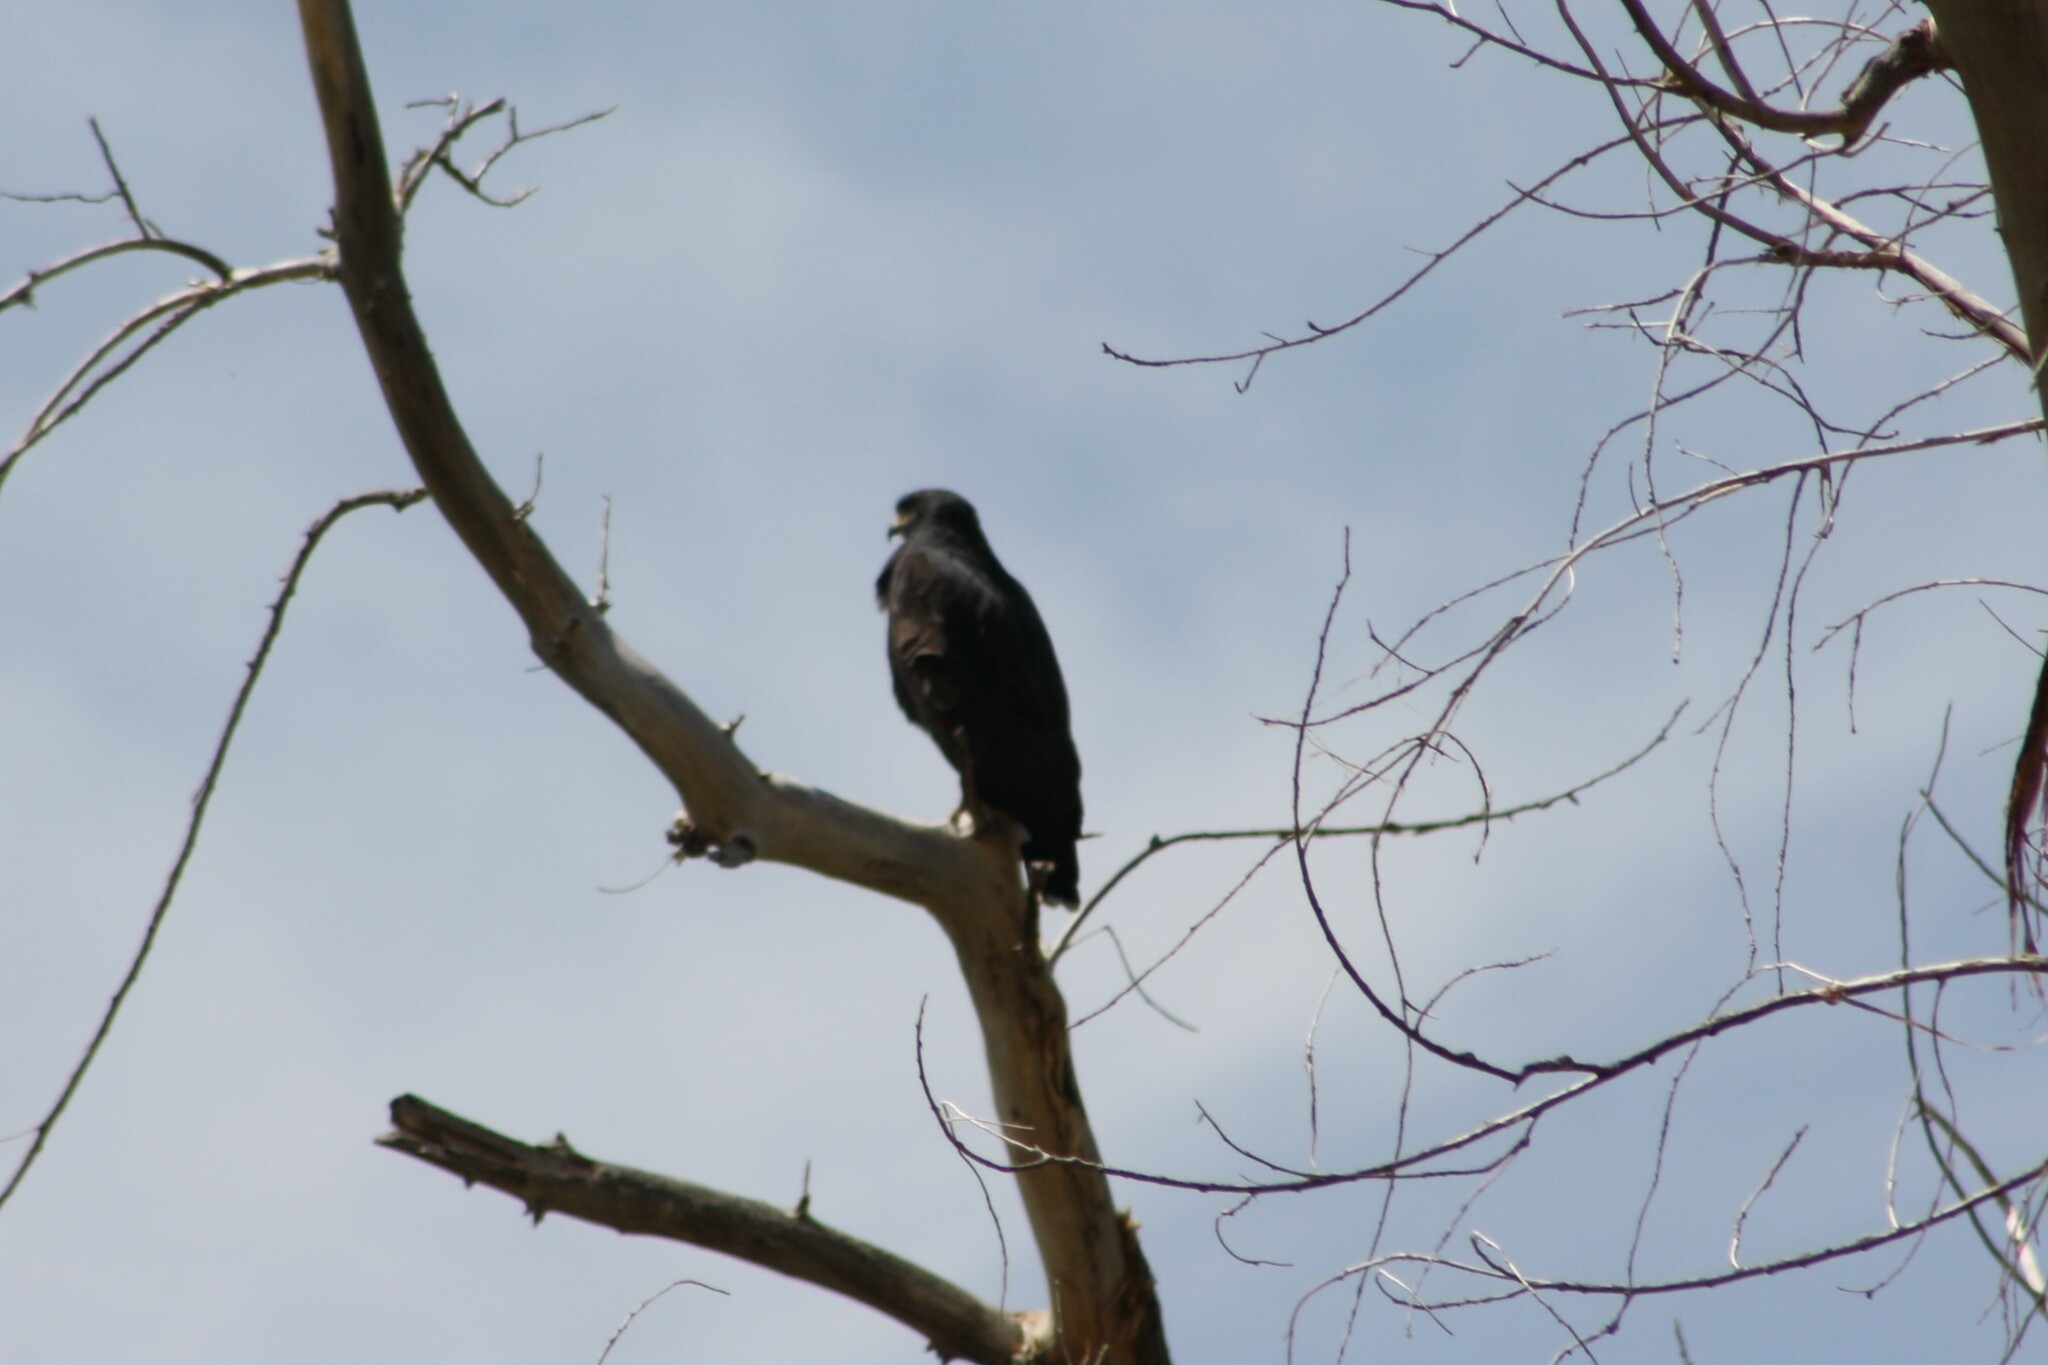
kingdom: Animalia
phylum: Chordata
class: Aves
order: Accipitriformes
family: Accipitridae
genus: Buteogallus
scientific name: Buteogallus anthracinus
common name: Common black hawk
